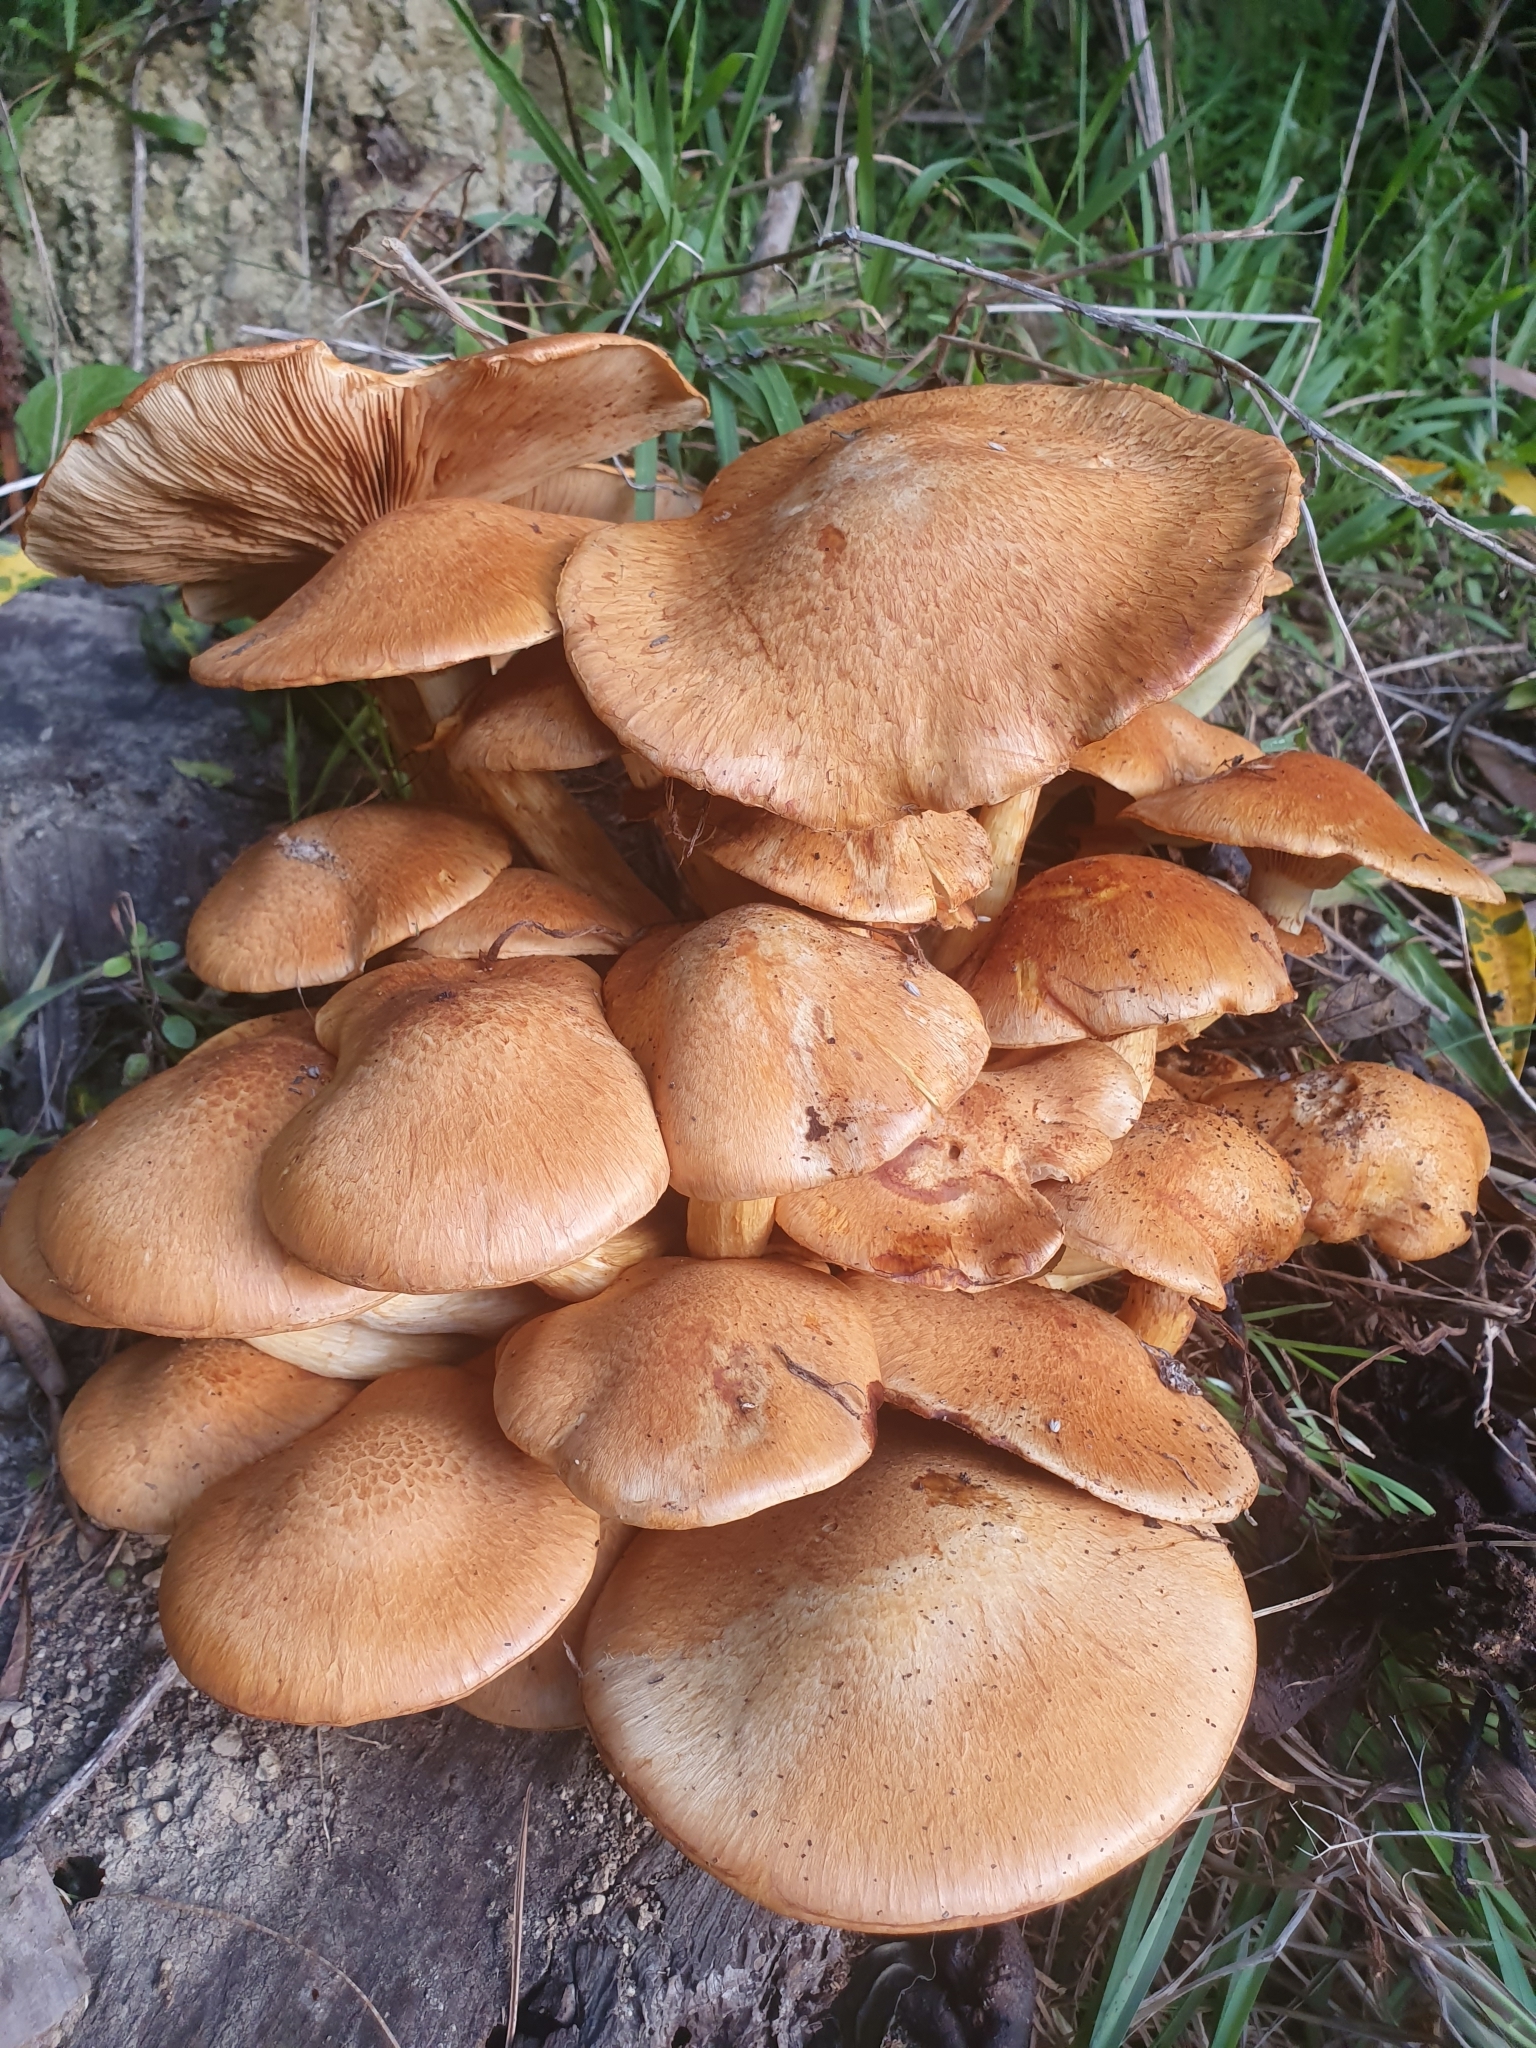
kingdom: Fungi
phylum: Basidiomycota
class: Agaricomycetes
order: Agaricales
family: Hymenogastraceae
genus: Gymnopilus
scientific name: Gymnopilus junonius
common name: Spectacular rustgill
